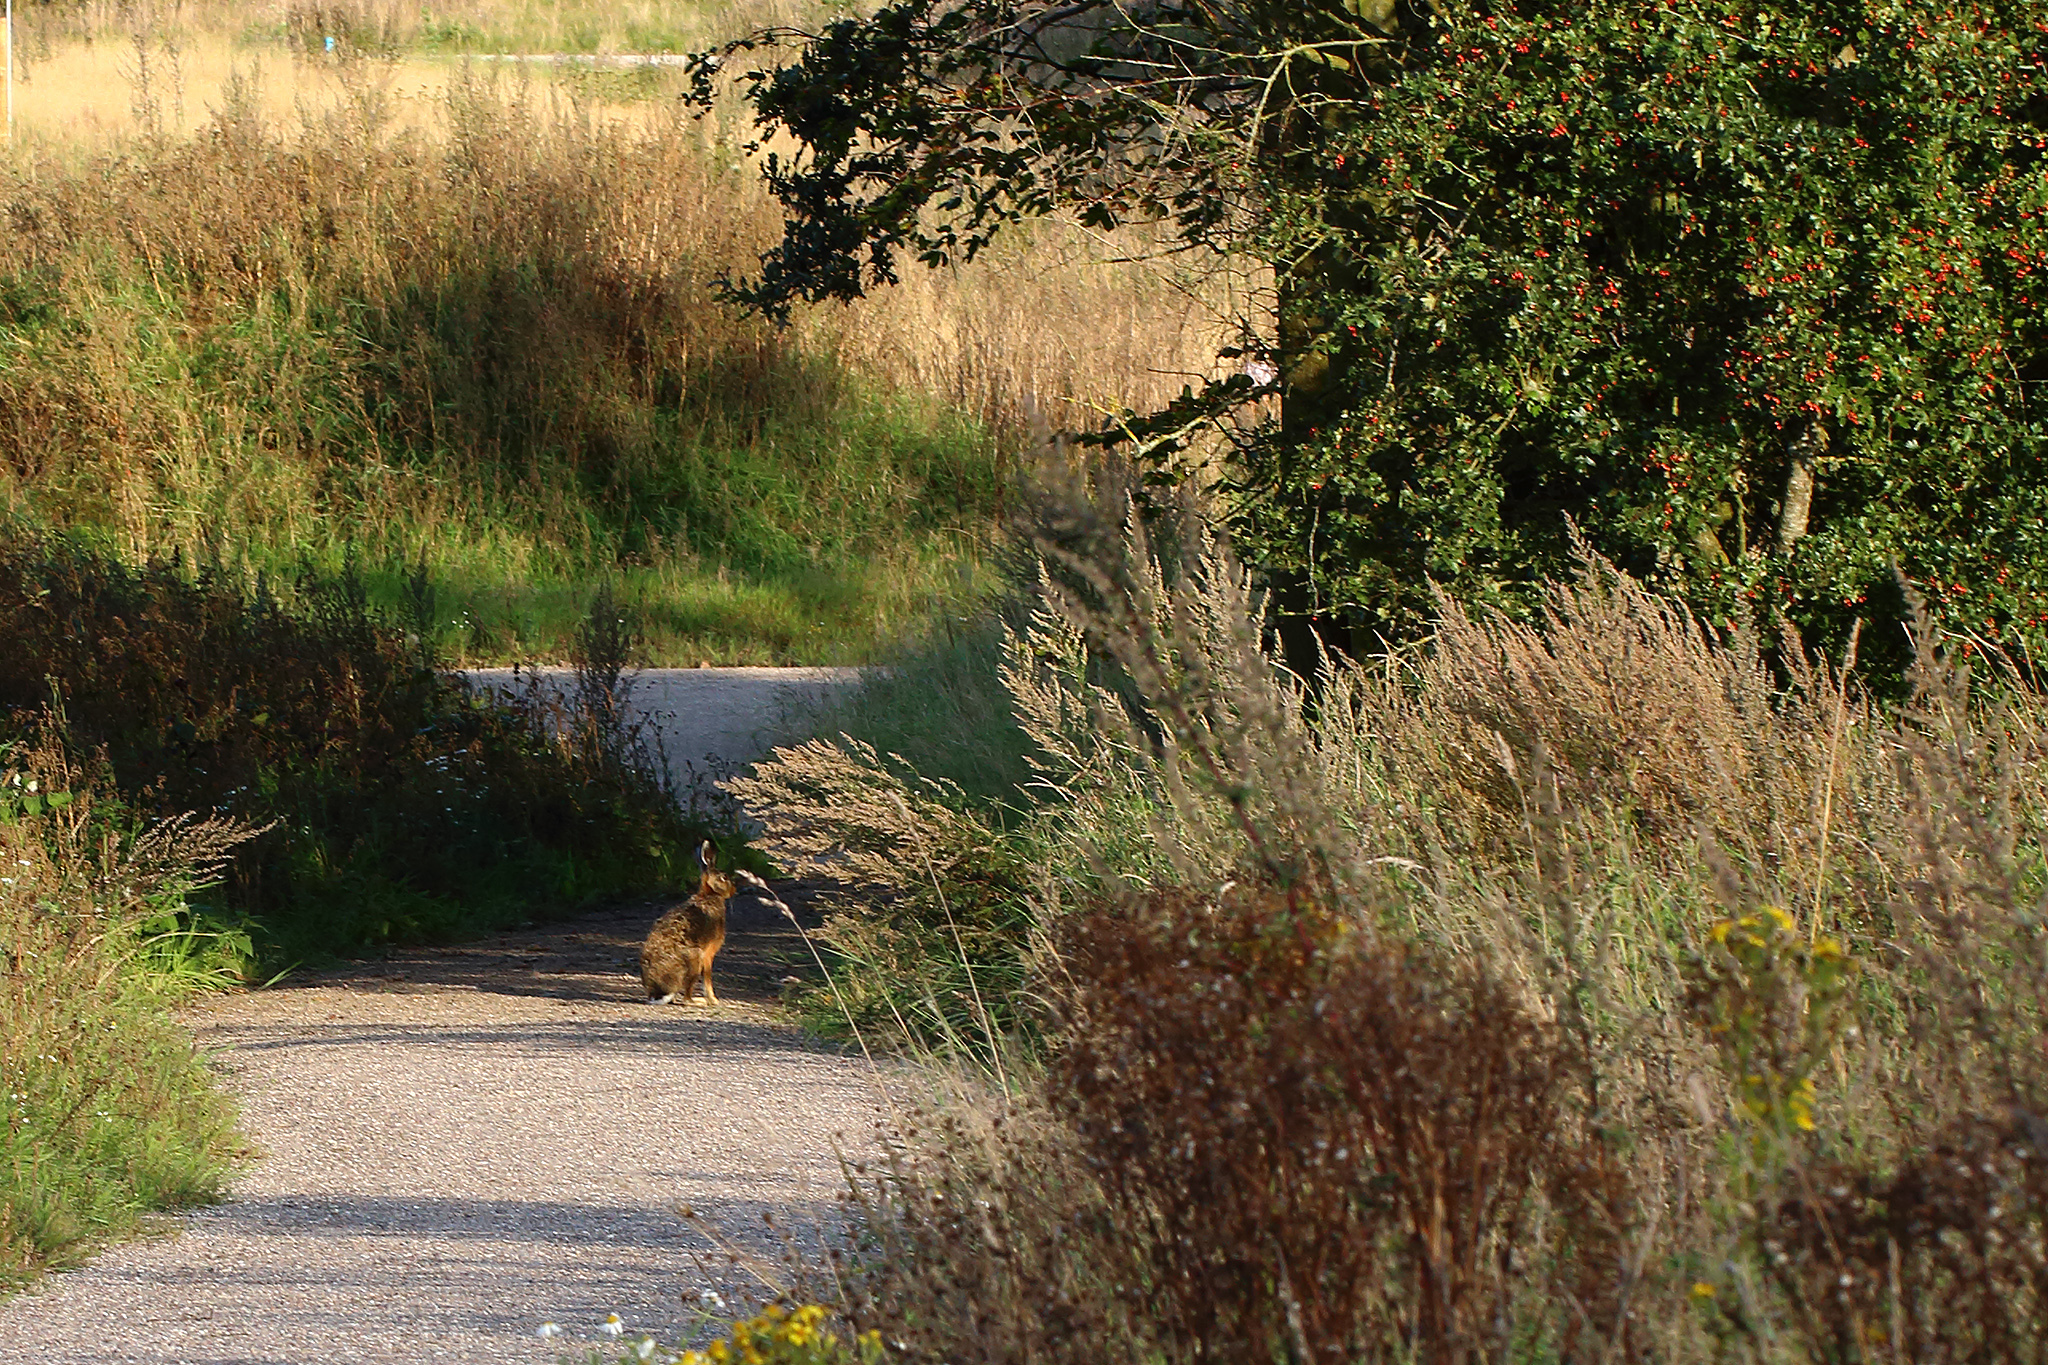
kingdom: Animalia
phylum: Chordata
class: Mammalia
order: Lagomorpha
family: Leporidae
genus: Lepus
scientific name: Lepus europaeus
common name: European hare
